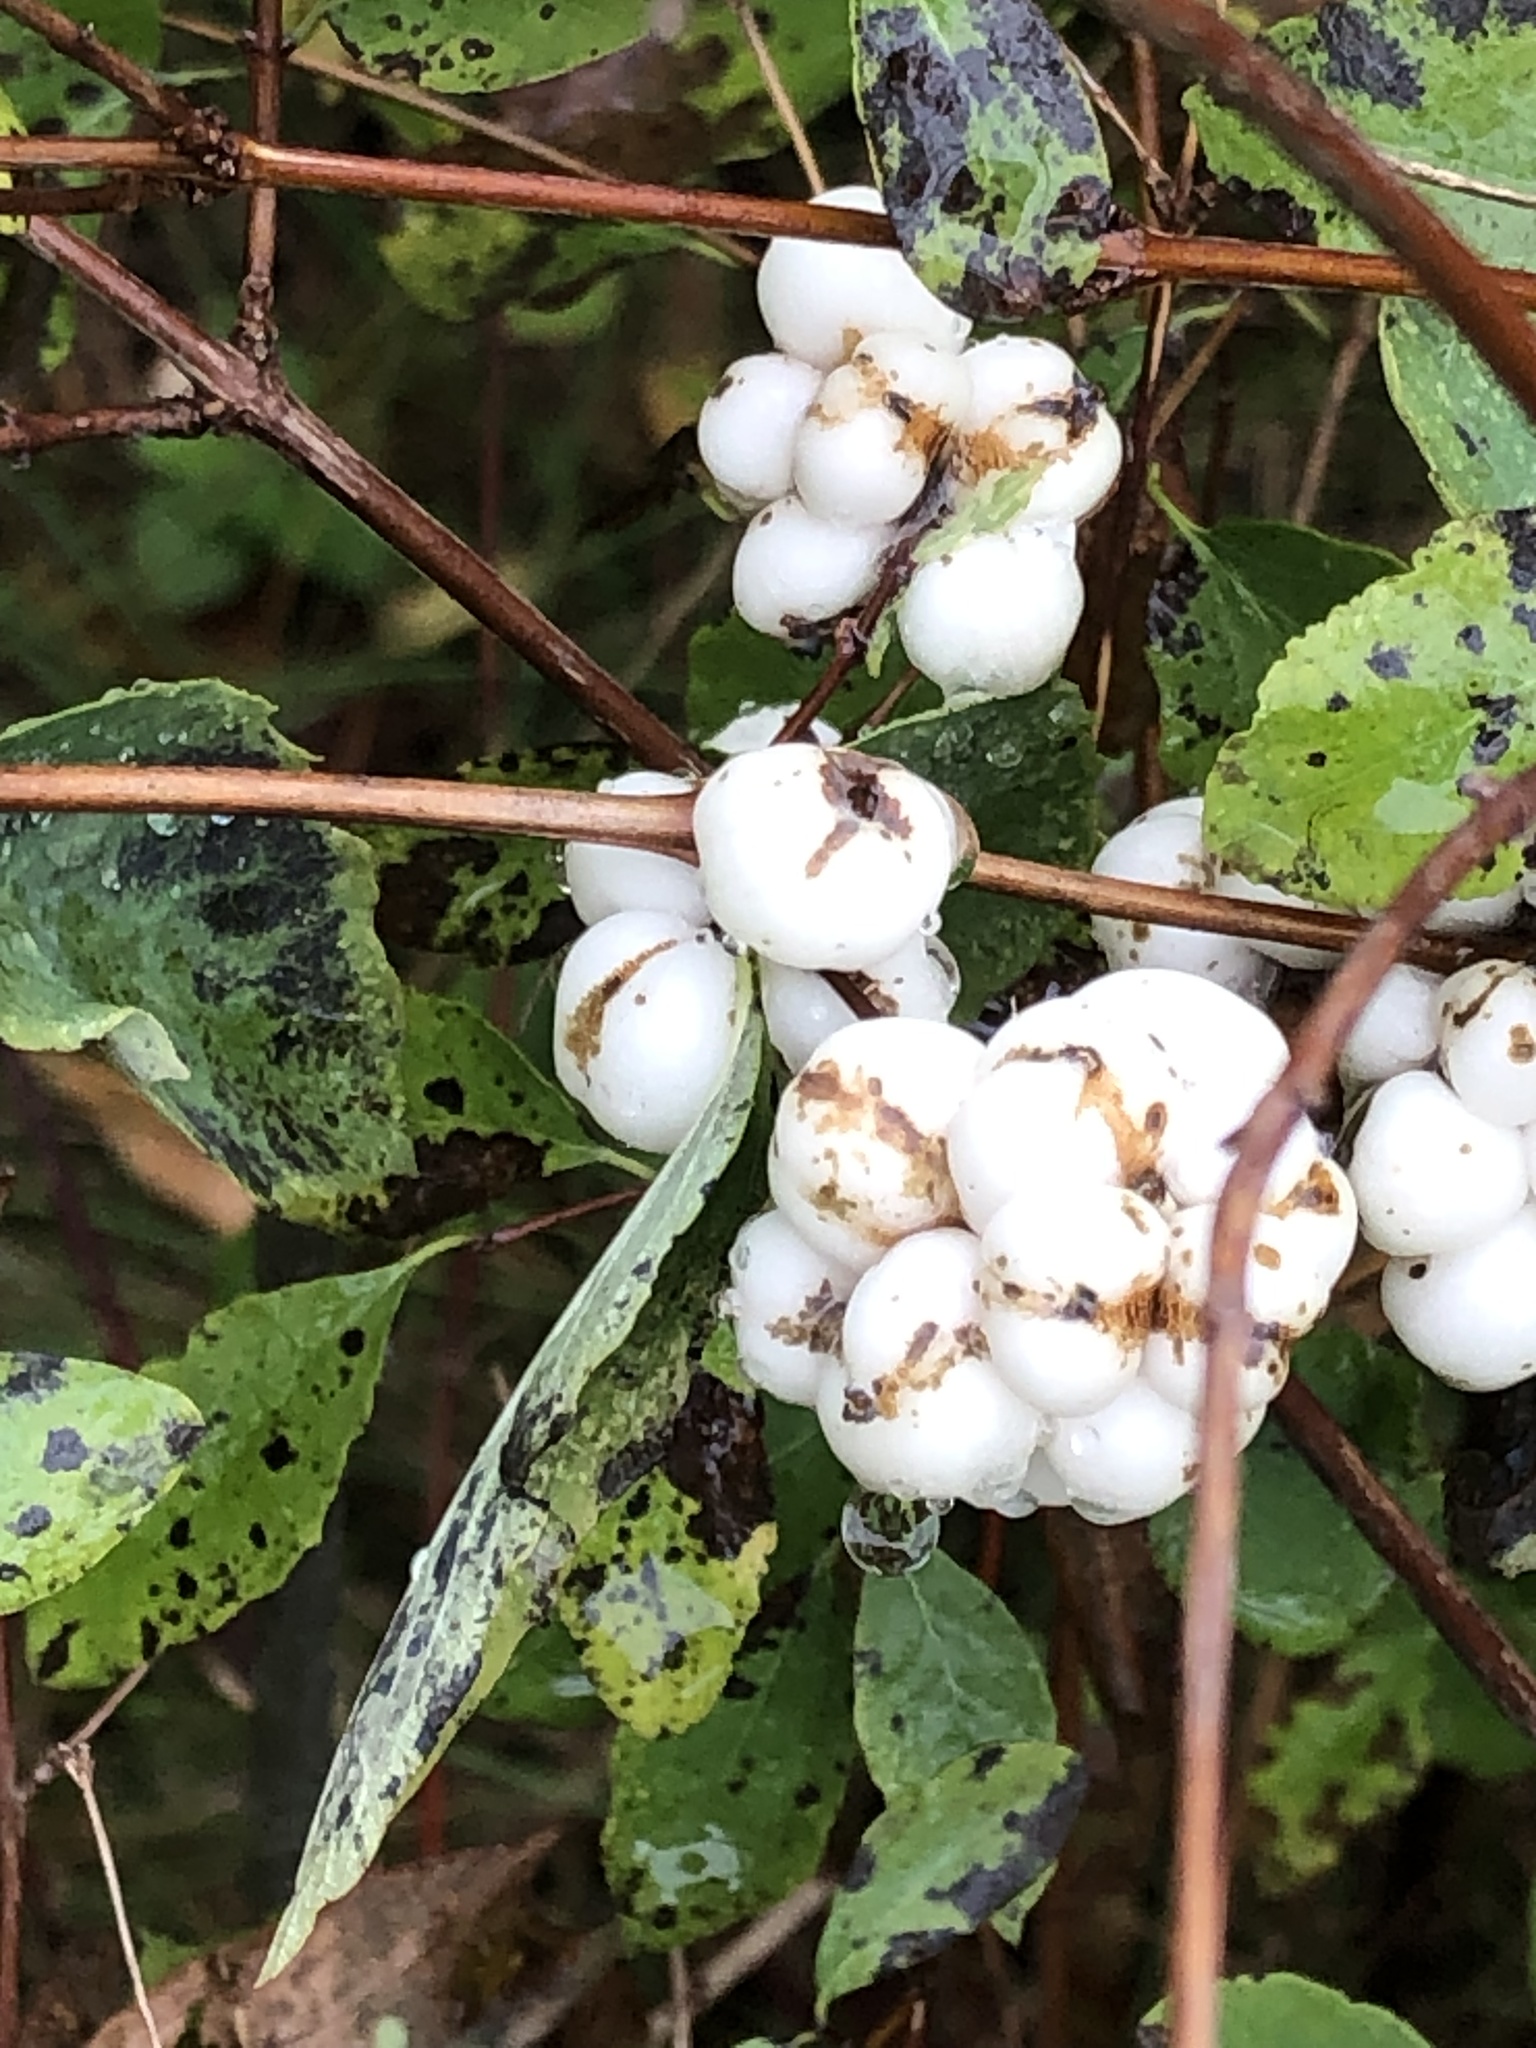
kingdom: Plantae
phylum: Tracheophyta
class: Magnoliopsida
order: Dipsacales
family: Caprifoliaceae
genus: Symphoricarpos
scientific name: Symphoricarpos albus
